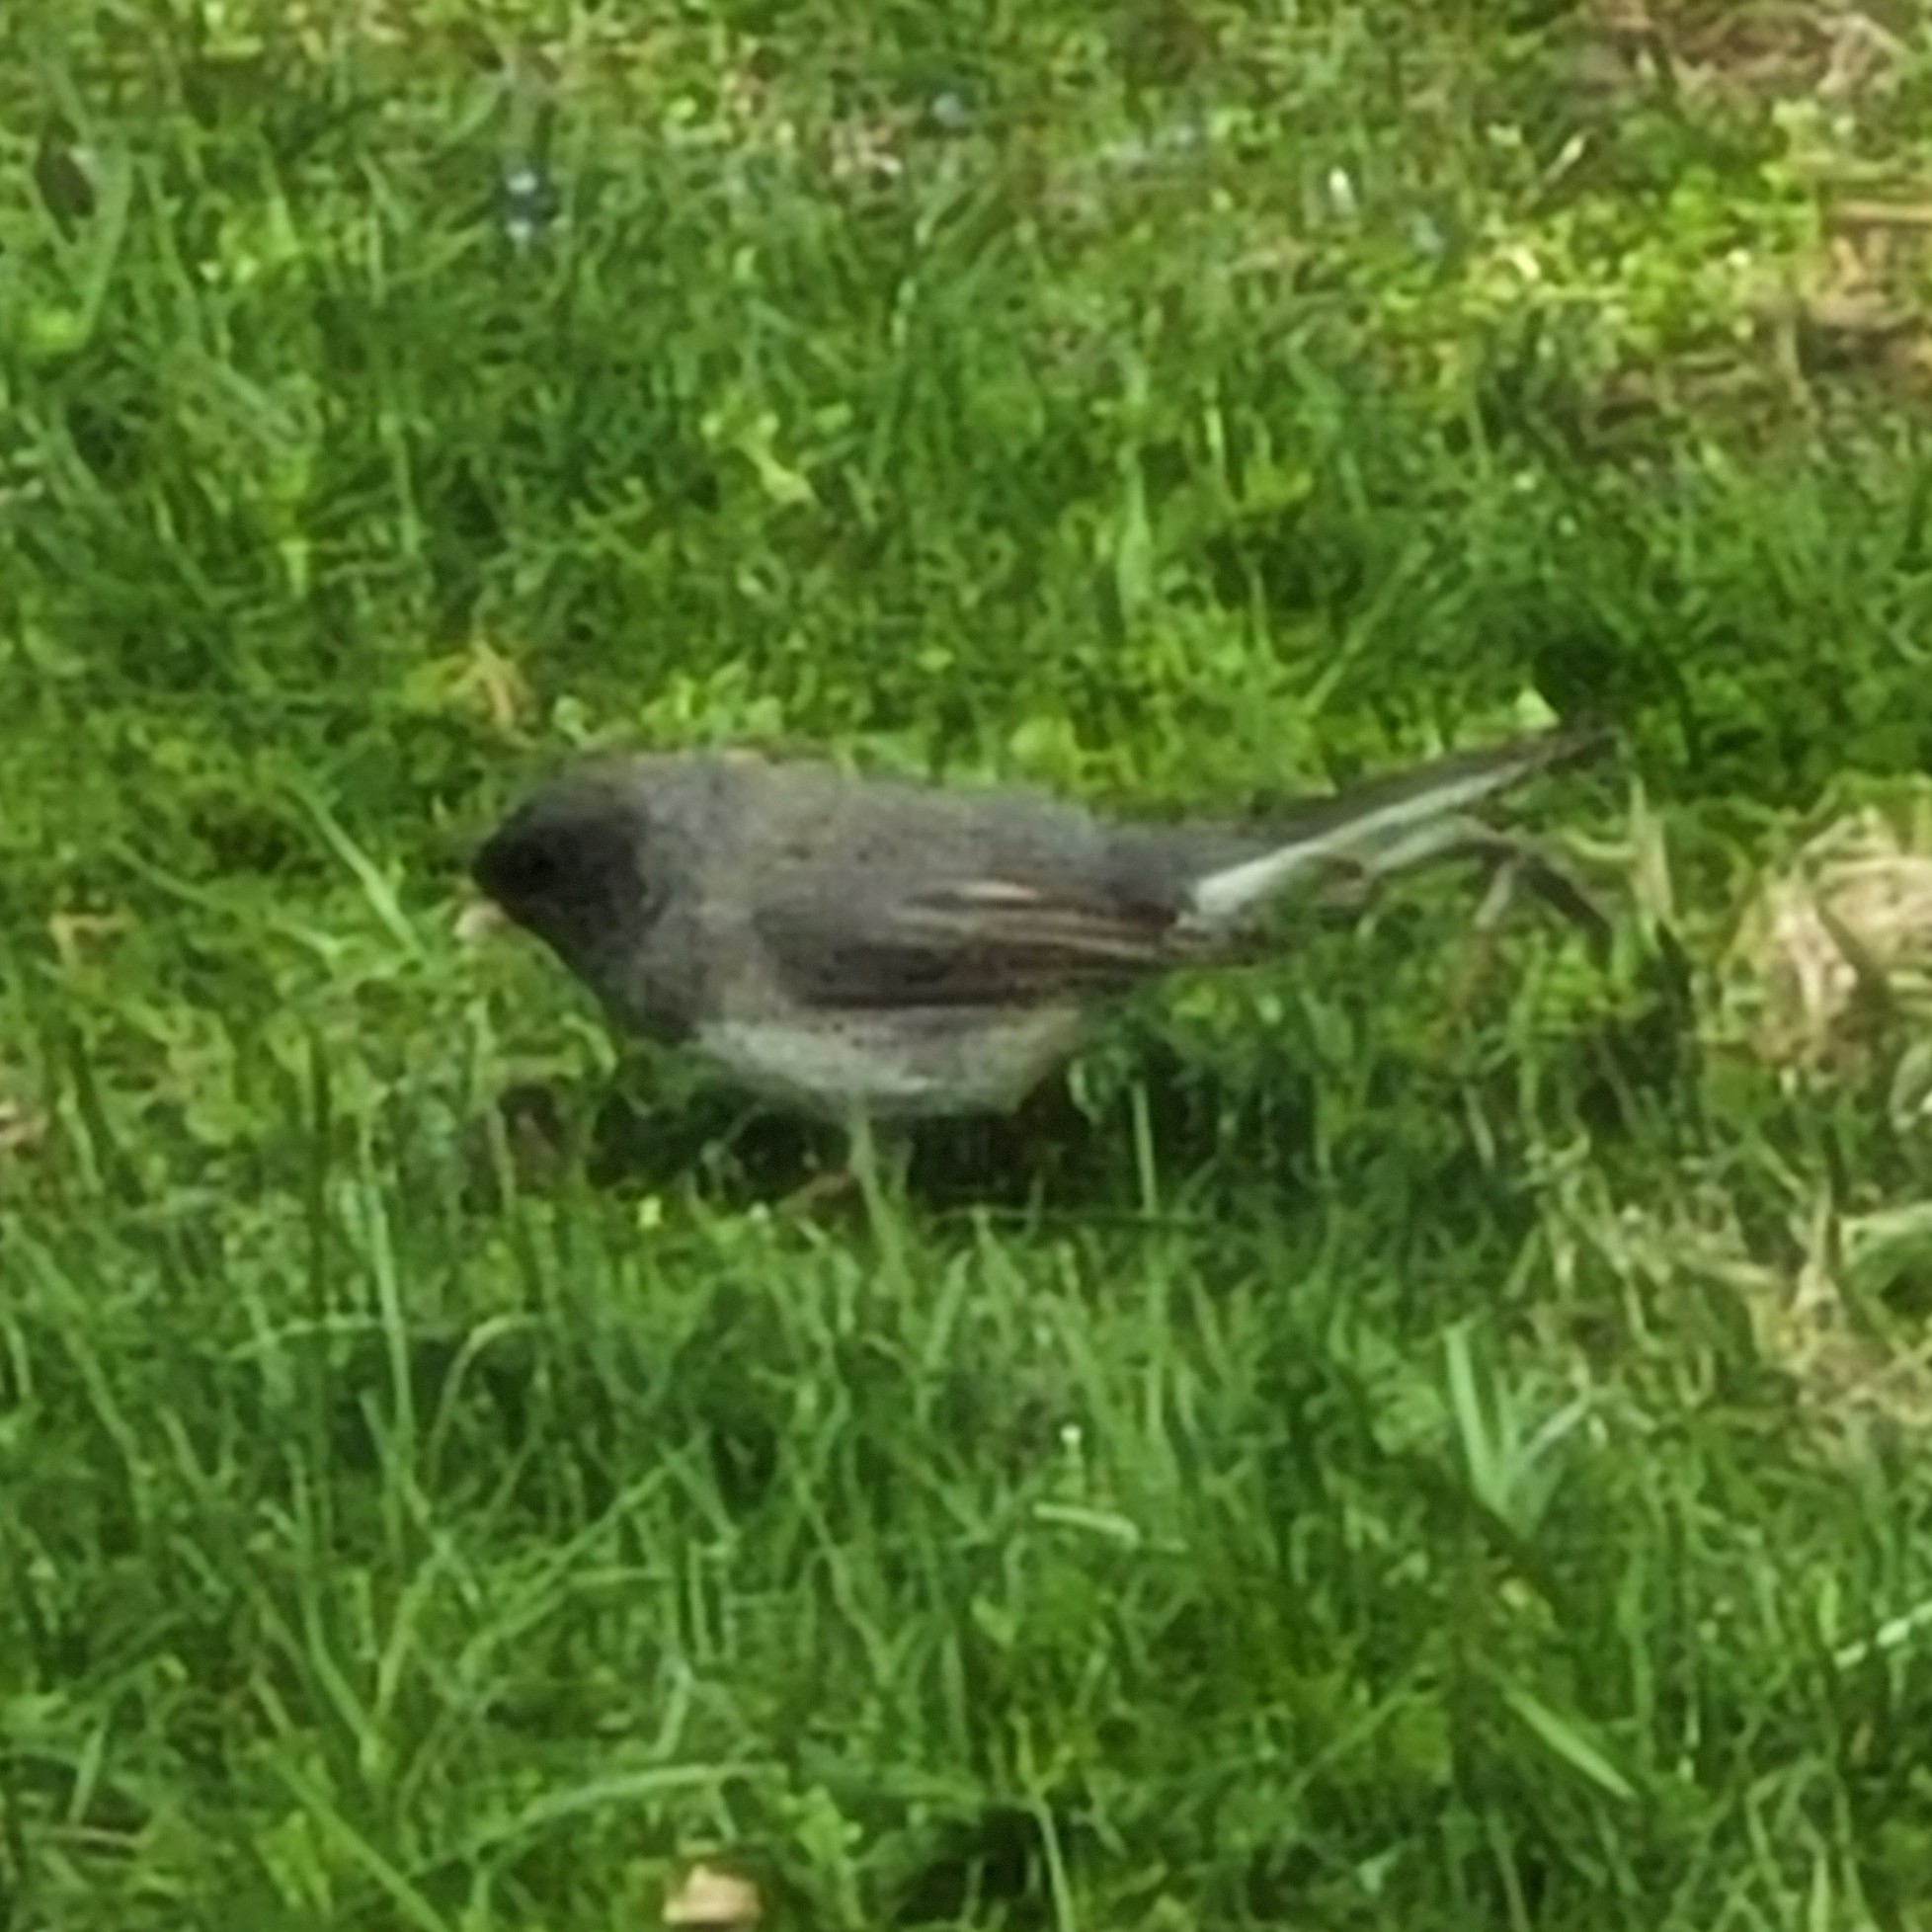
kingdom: Animalia
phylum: Chordata
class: Aves
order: Passeriformes
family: Passerellidae
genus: Junco
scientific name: Junco hyemalis
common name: Dark-eyed junco
